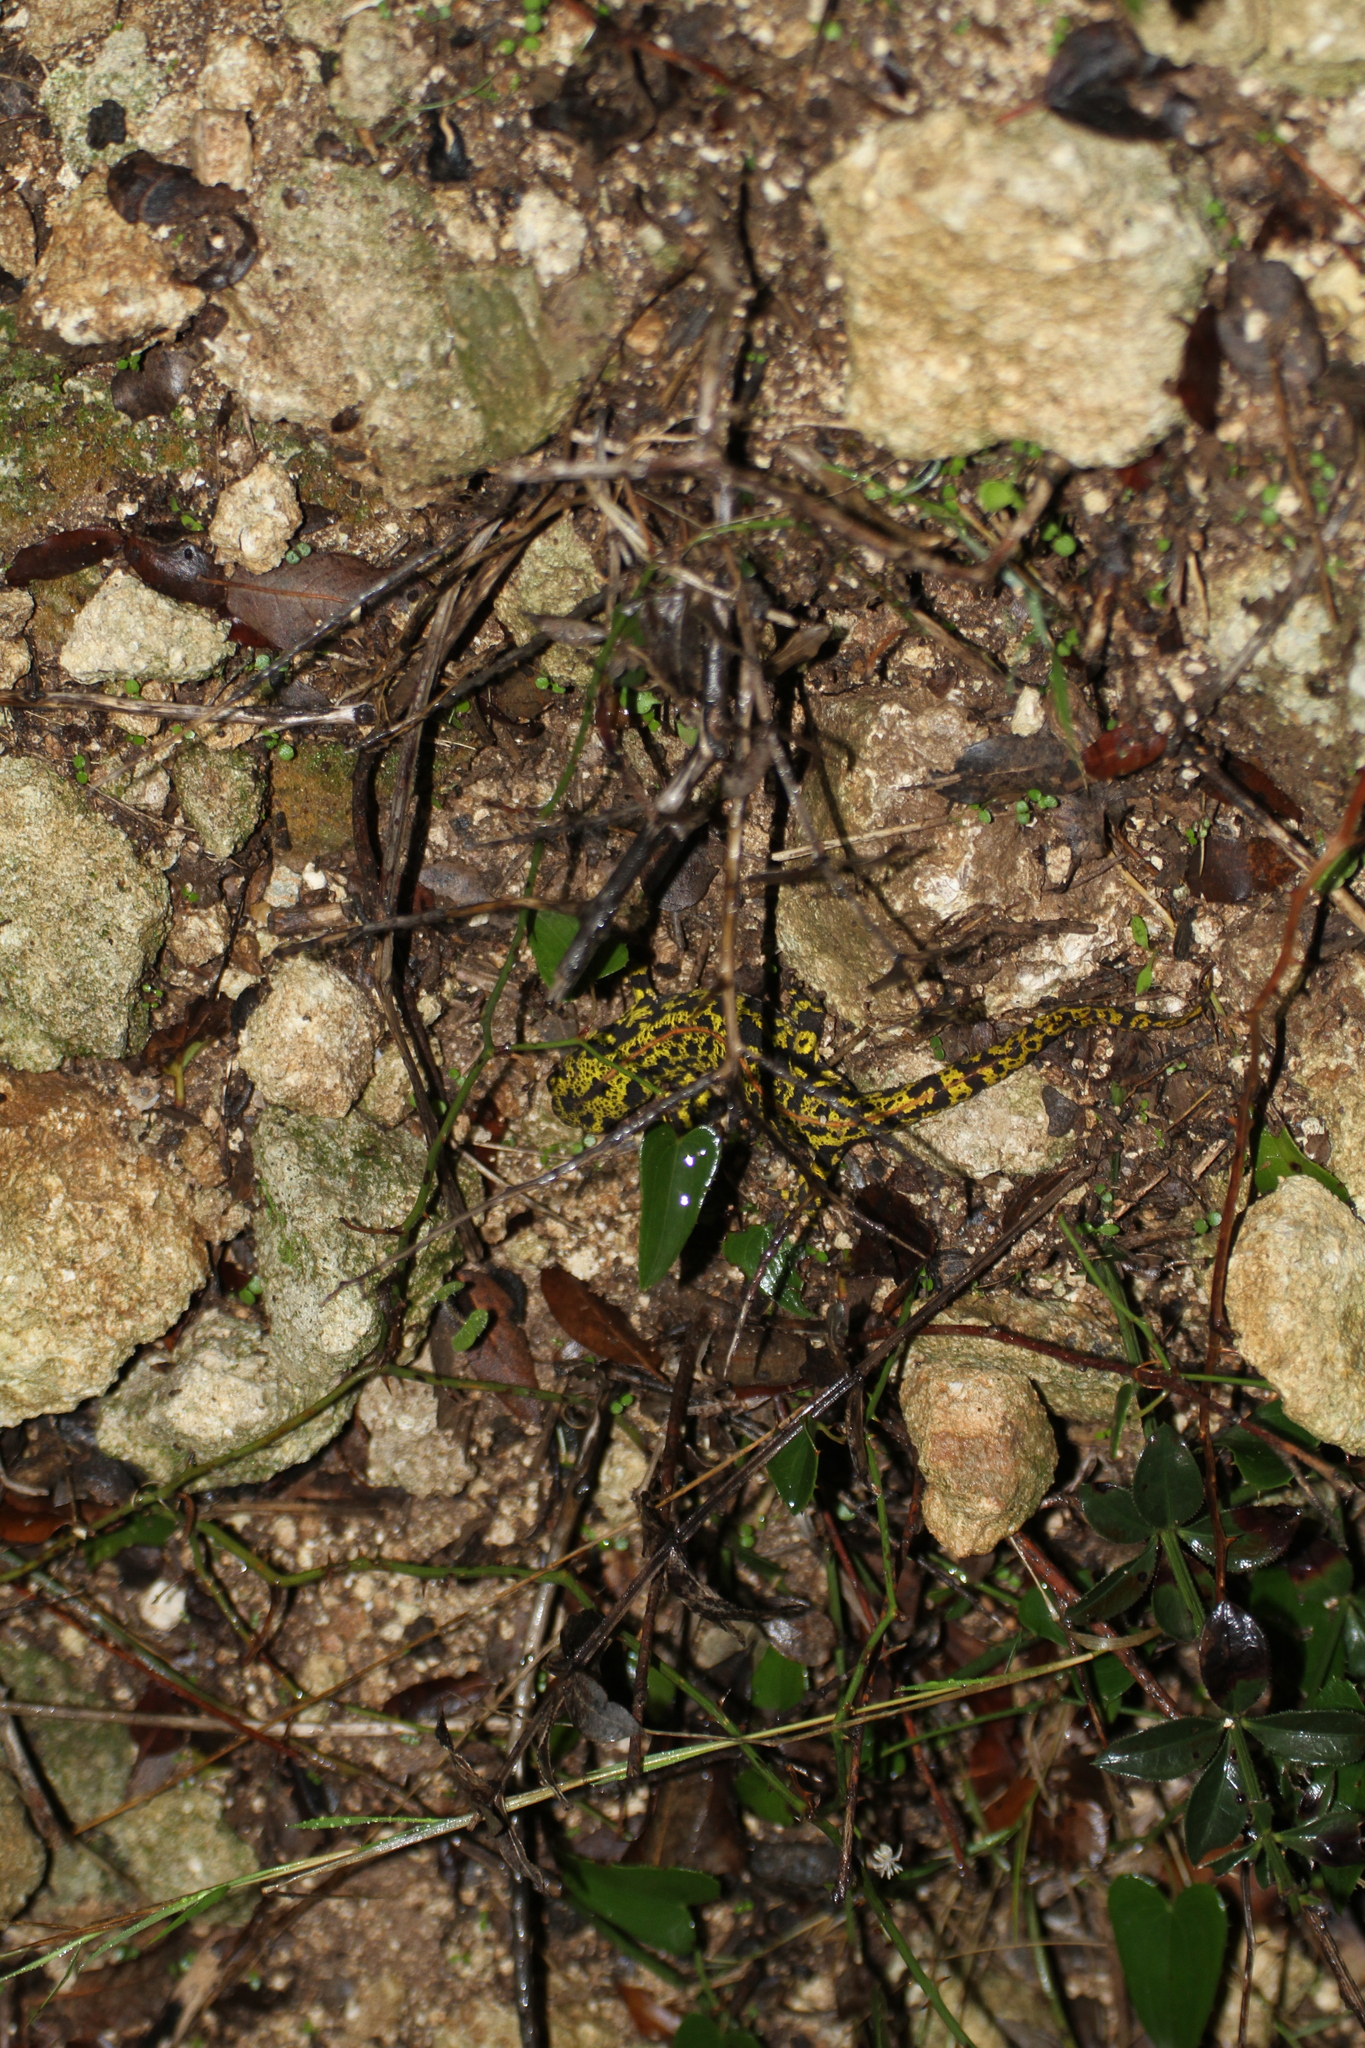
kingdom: Animalia
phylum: Chordata
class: Amphibia
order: Caudata
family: Salamandridae
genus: Triturus
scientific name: Triturus marmoratus
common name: Marbled newt
